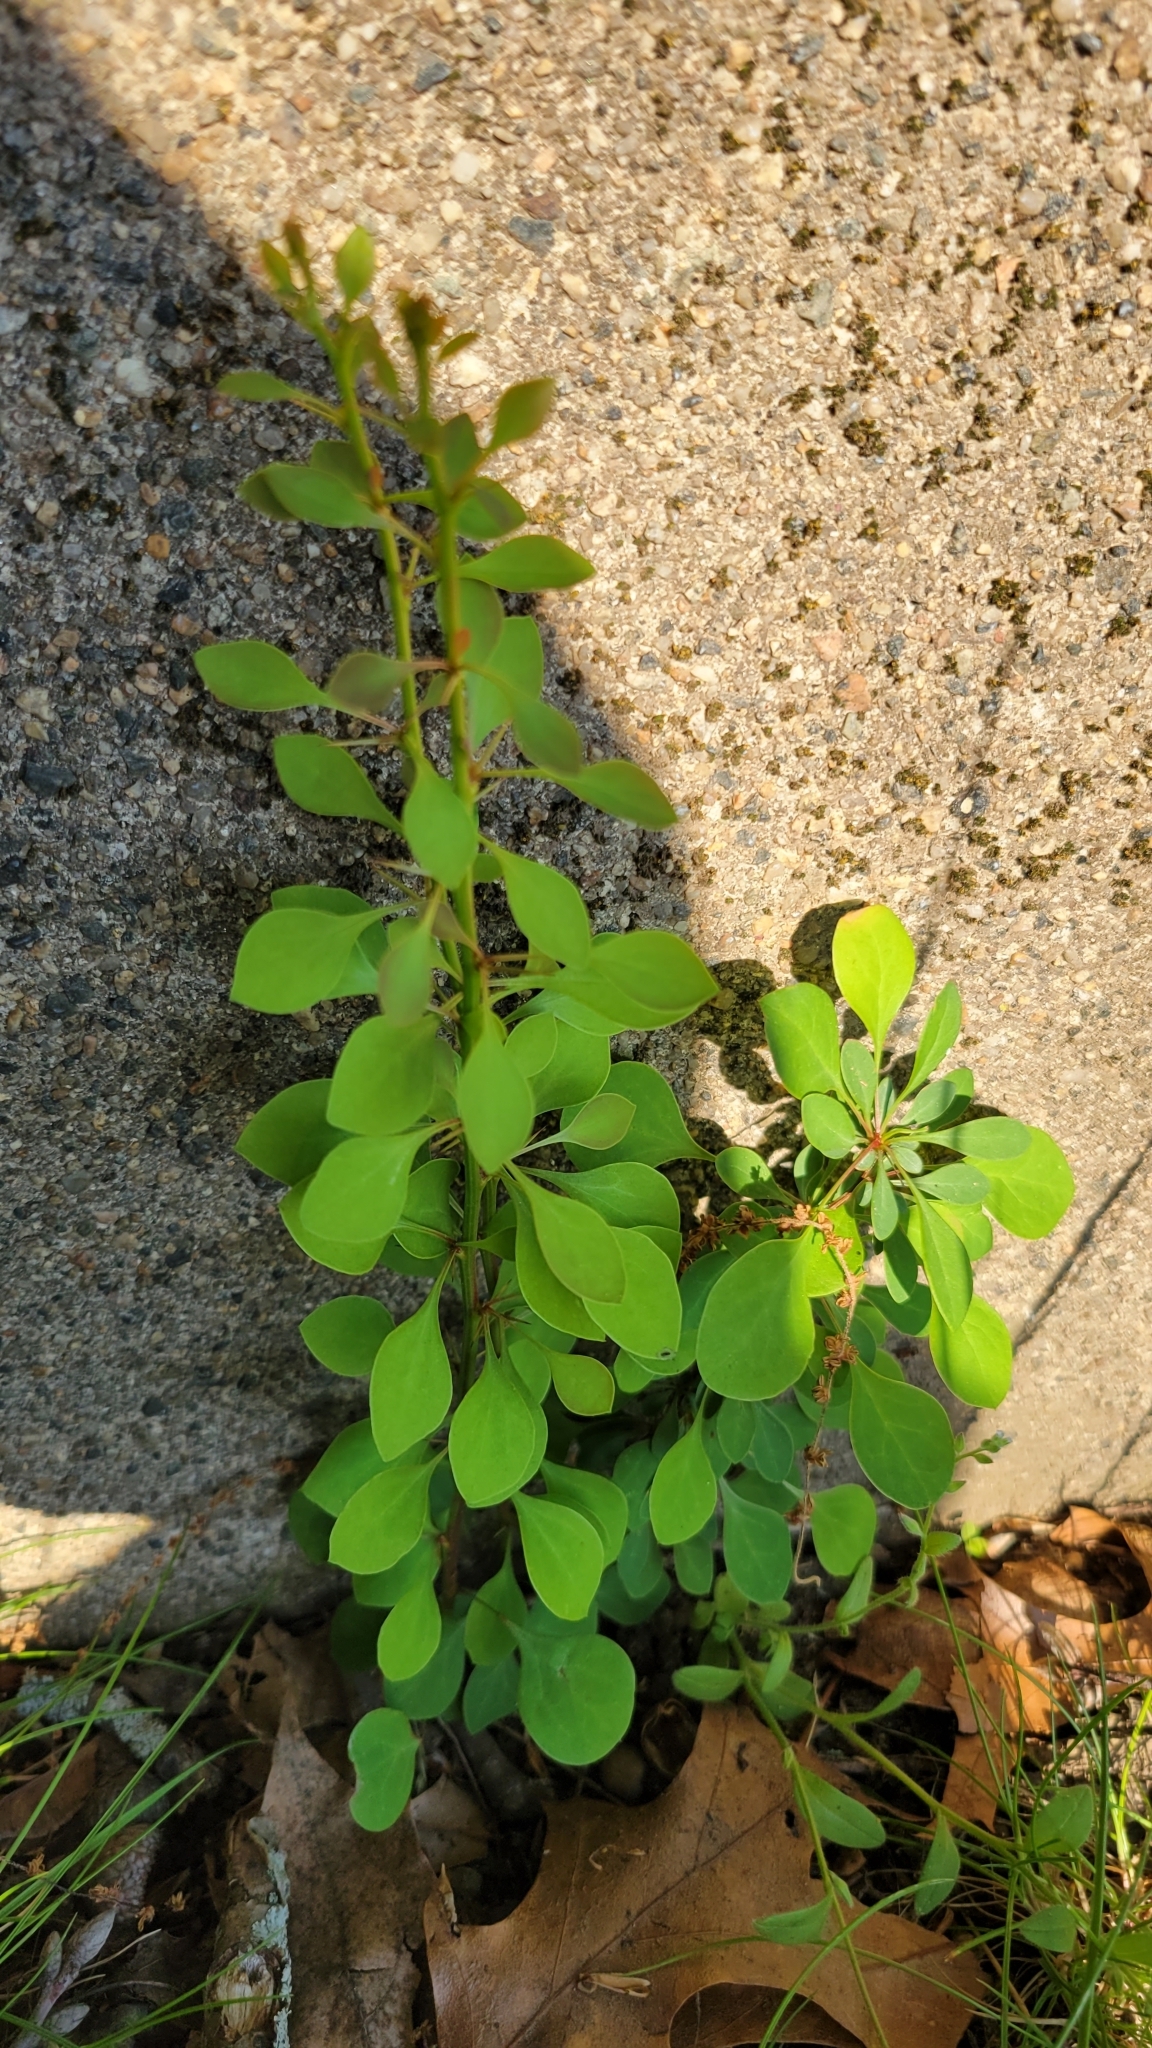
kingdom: Plantae
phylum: Tracheophyta
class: Magnoliopsida
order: Ranunculales
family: Berberidaceae
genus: Berberis
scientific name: Berberis thunbergii
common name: Japanese barberry
